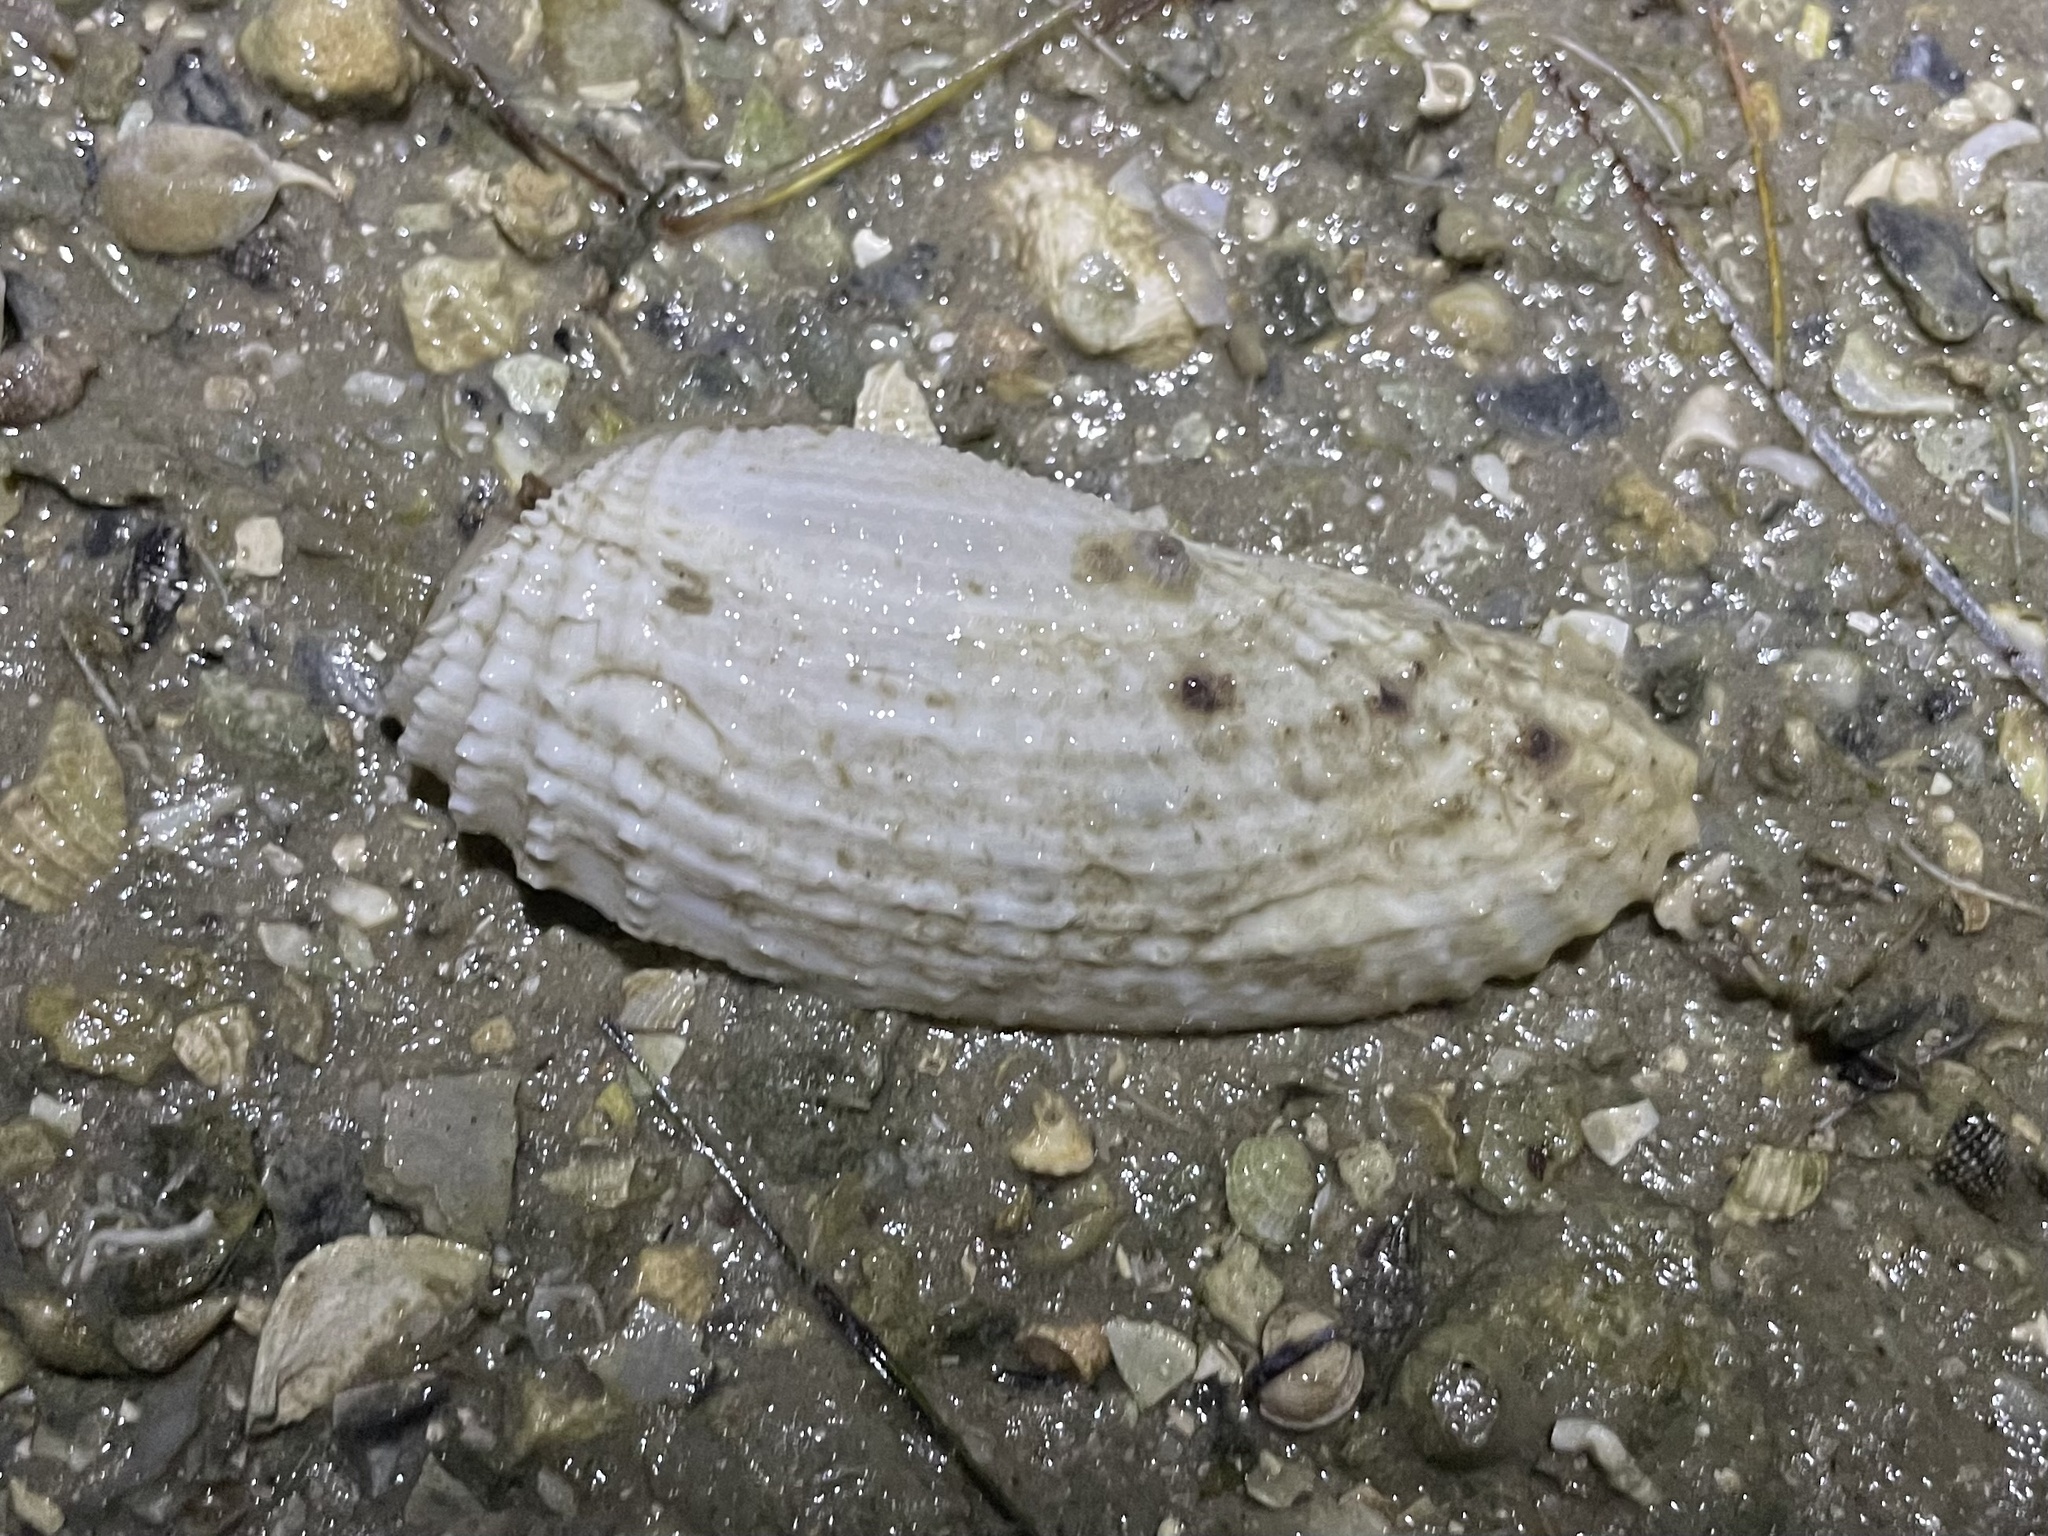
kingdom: Animalia
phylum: Mollusca
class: Bivalvia
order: Myida
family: Pholadidae
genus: Cyrtopleura
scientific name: Cyrtopleura costata
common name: Angel wing
